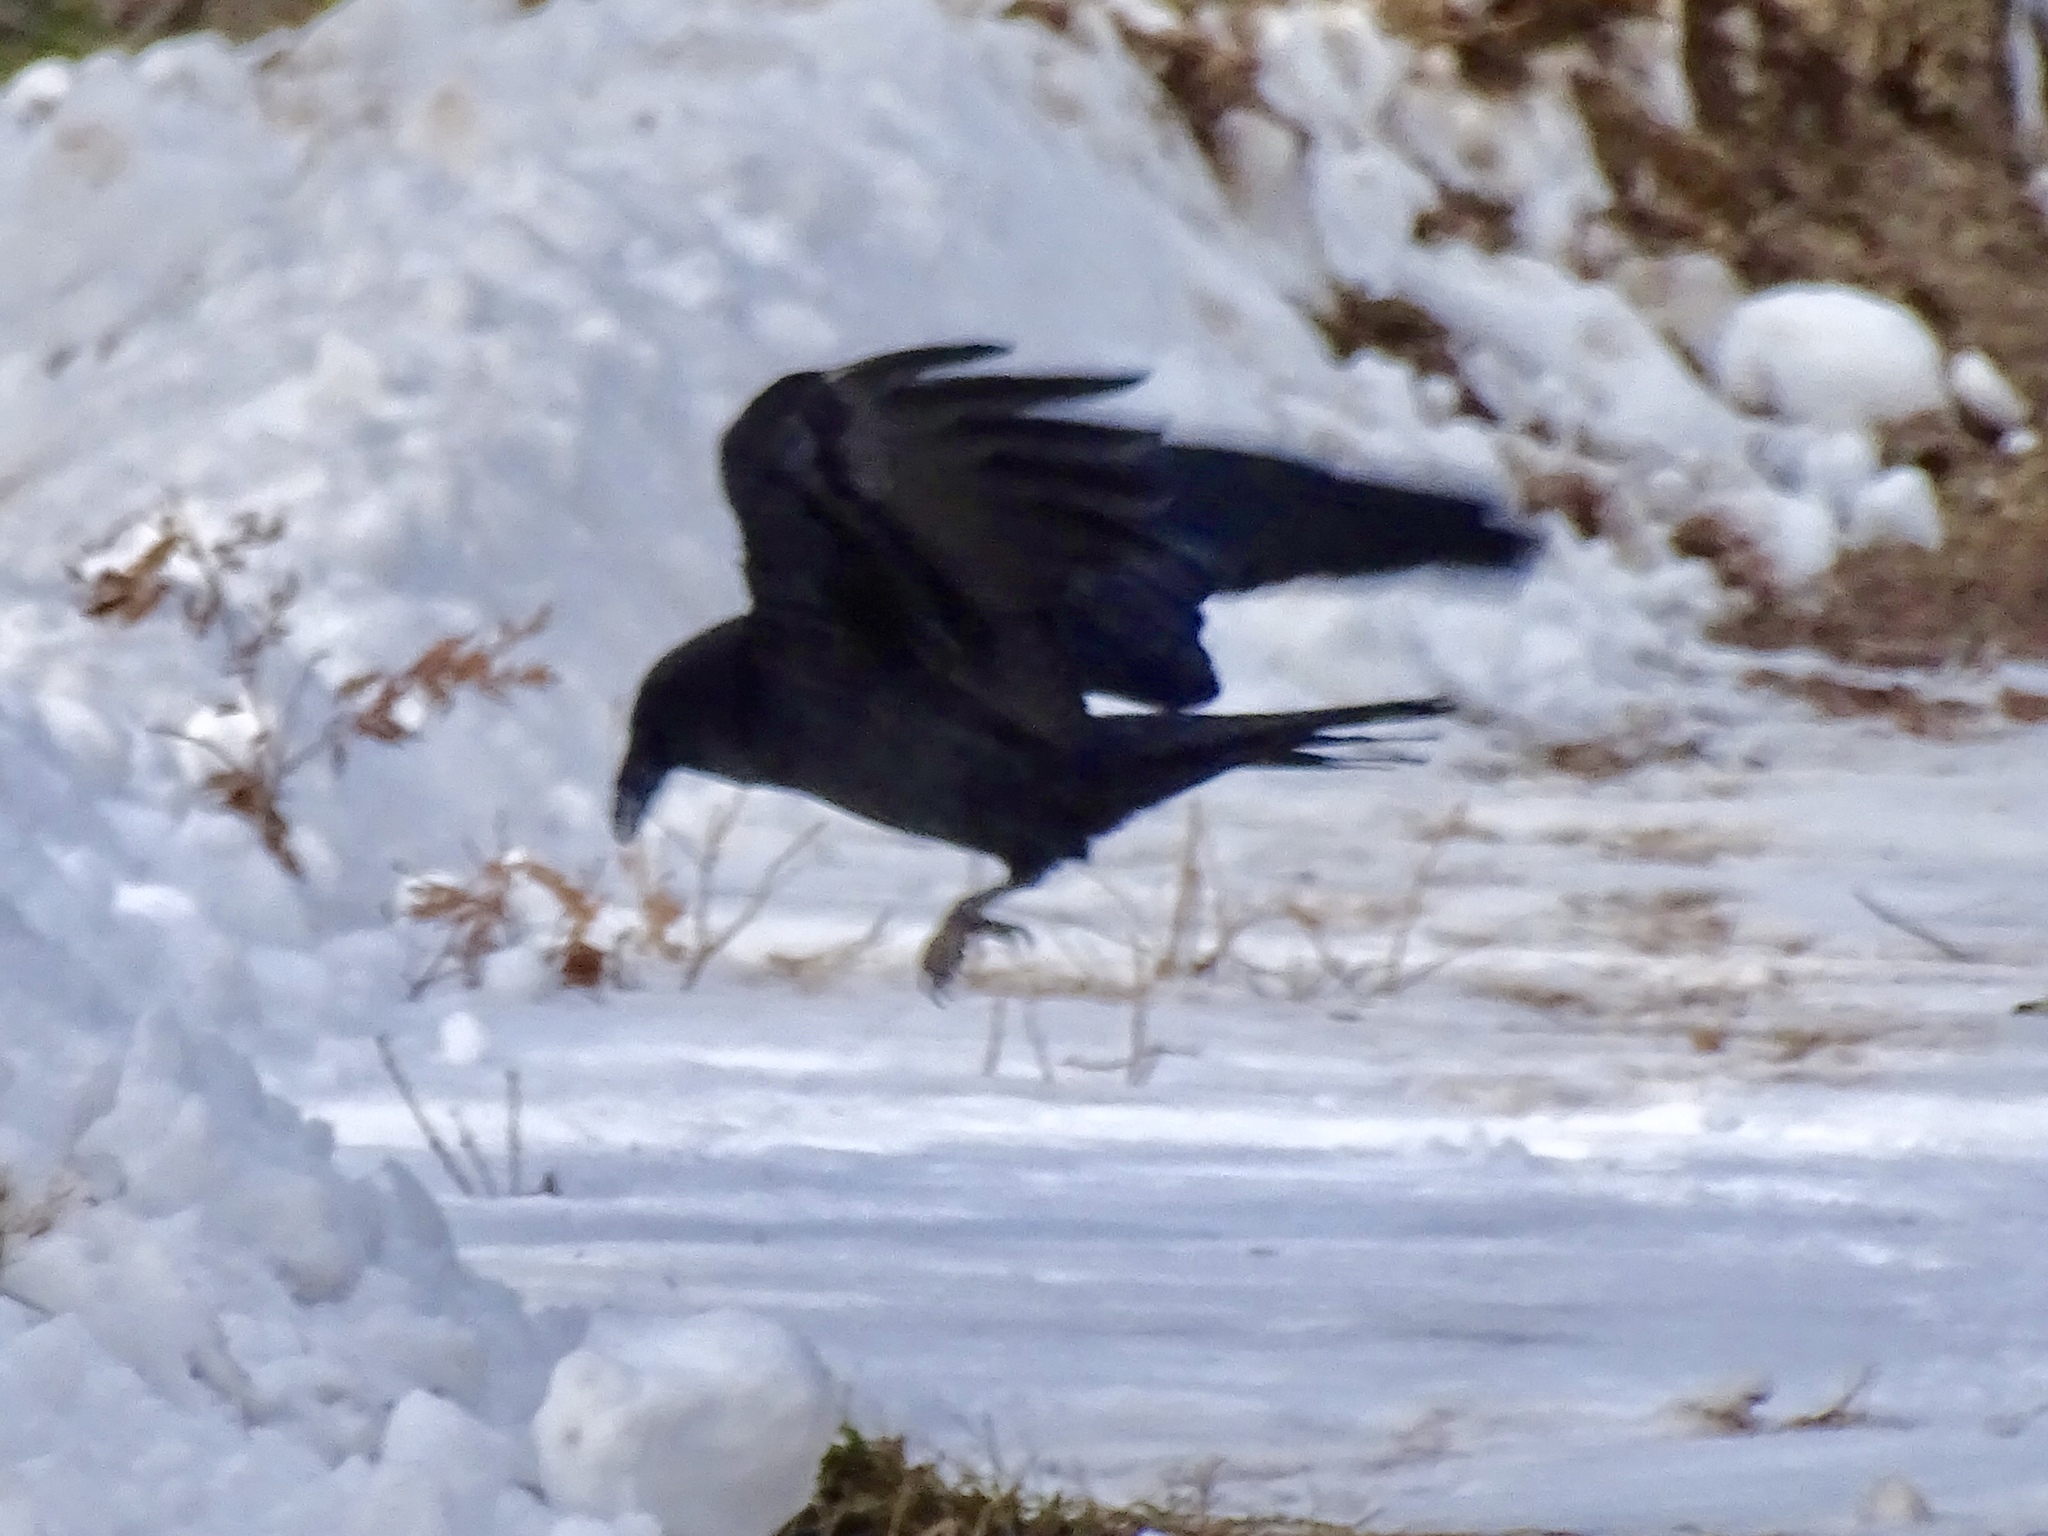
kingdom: Animalia
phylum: Chordata
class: Aves
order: Passeriformes
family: Corvidae
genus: Corvus
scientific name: Corvus corax
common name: Common raven
